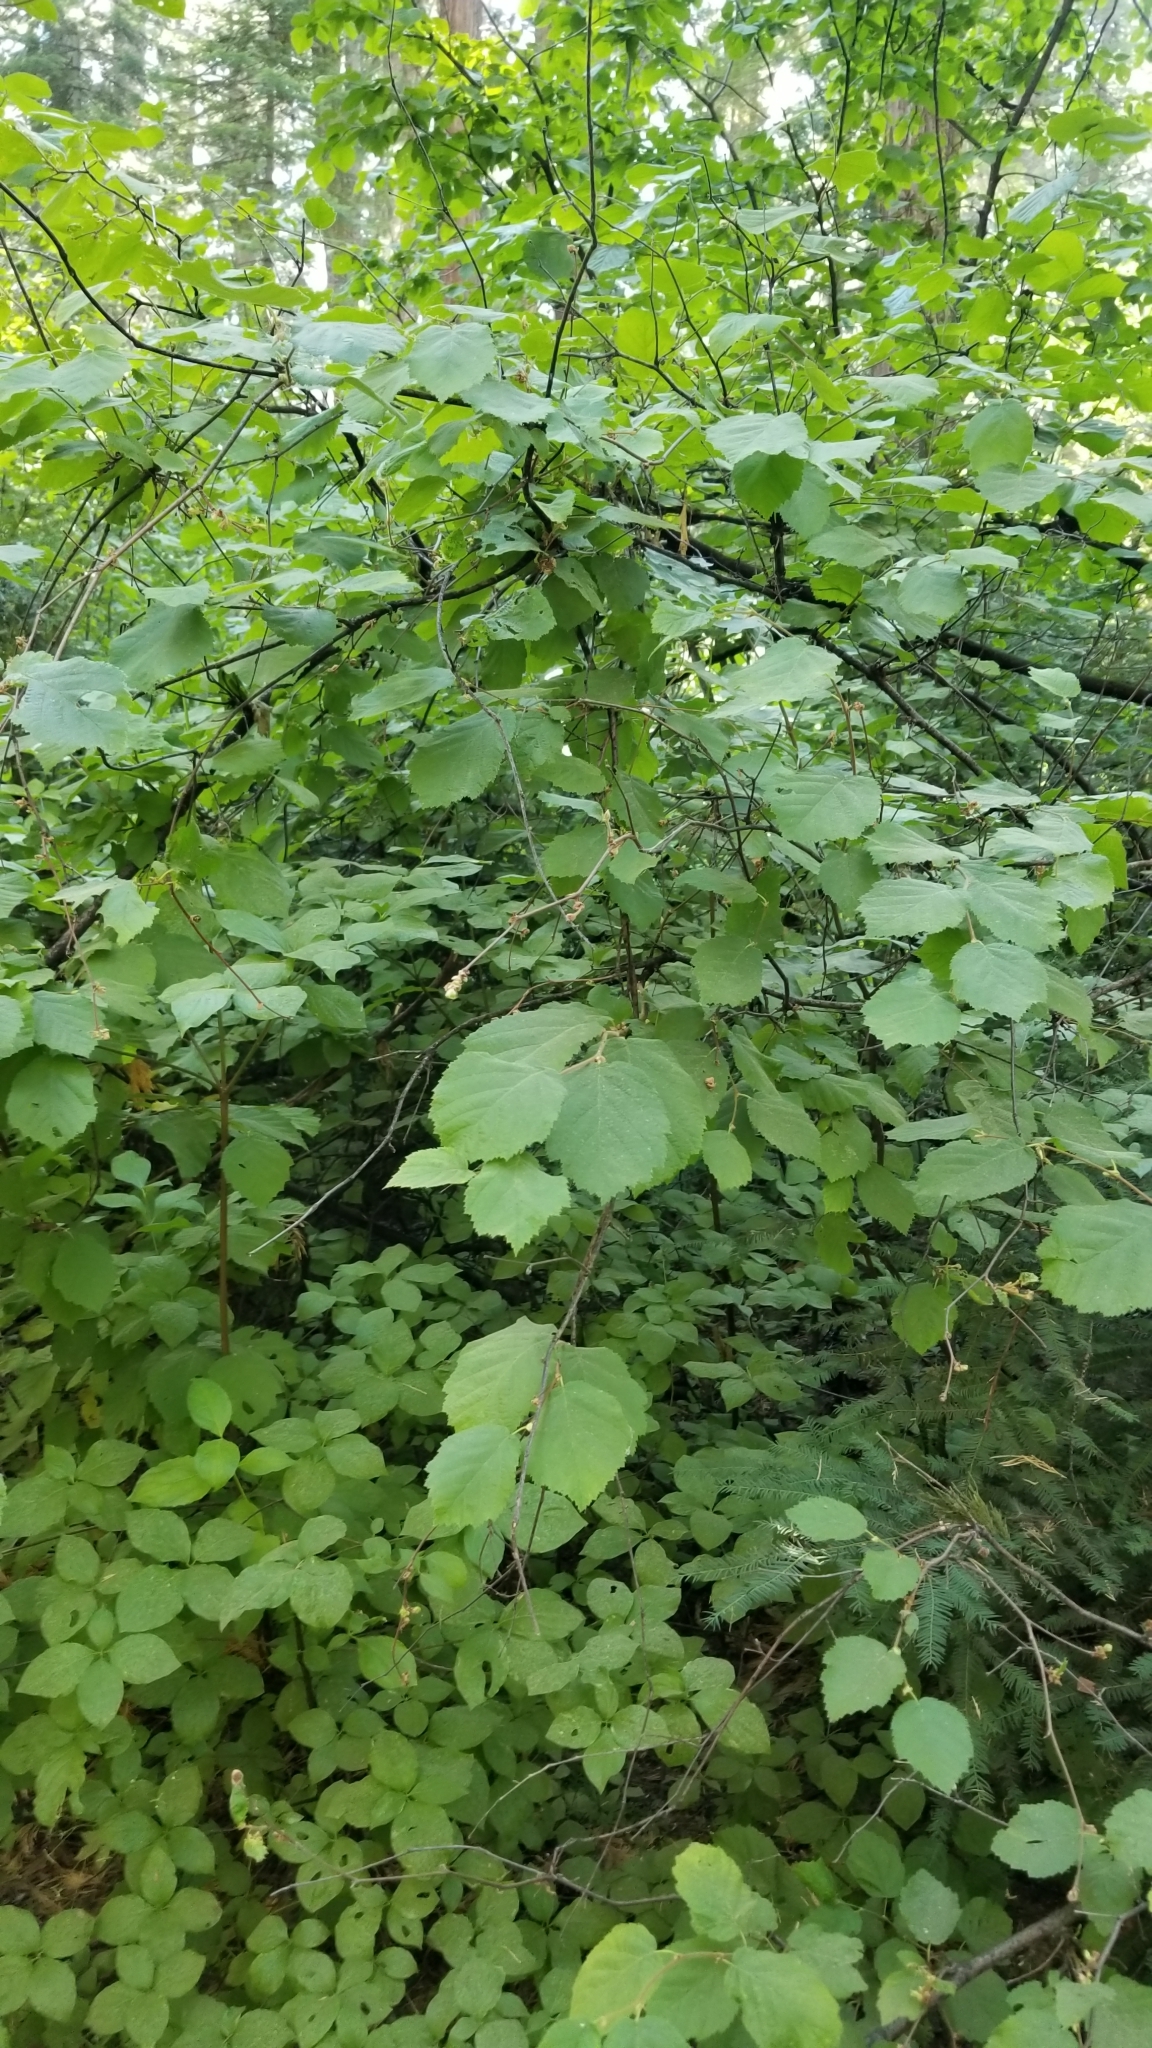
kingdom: Plantae
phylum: Tracheophyta
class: Magnoliopsida
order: Fagales
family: Betulaceae
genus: Corylus
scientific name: Corylus cornuta
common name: Beaked hazel
